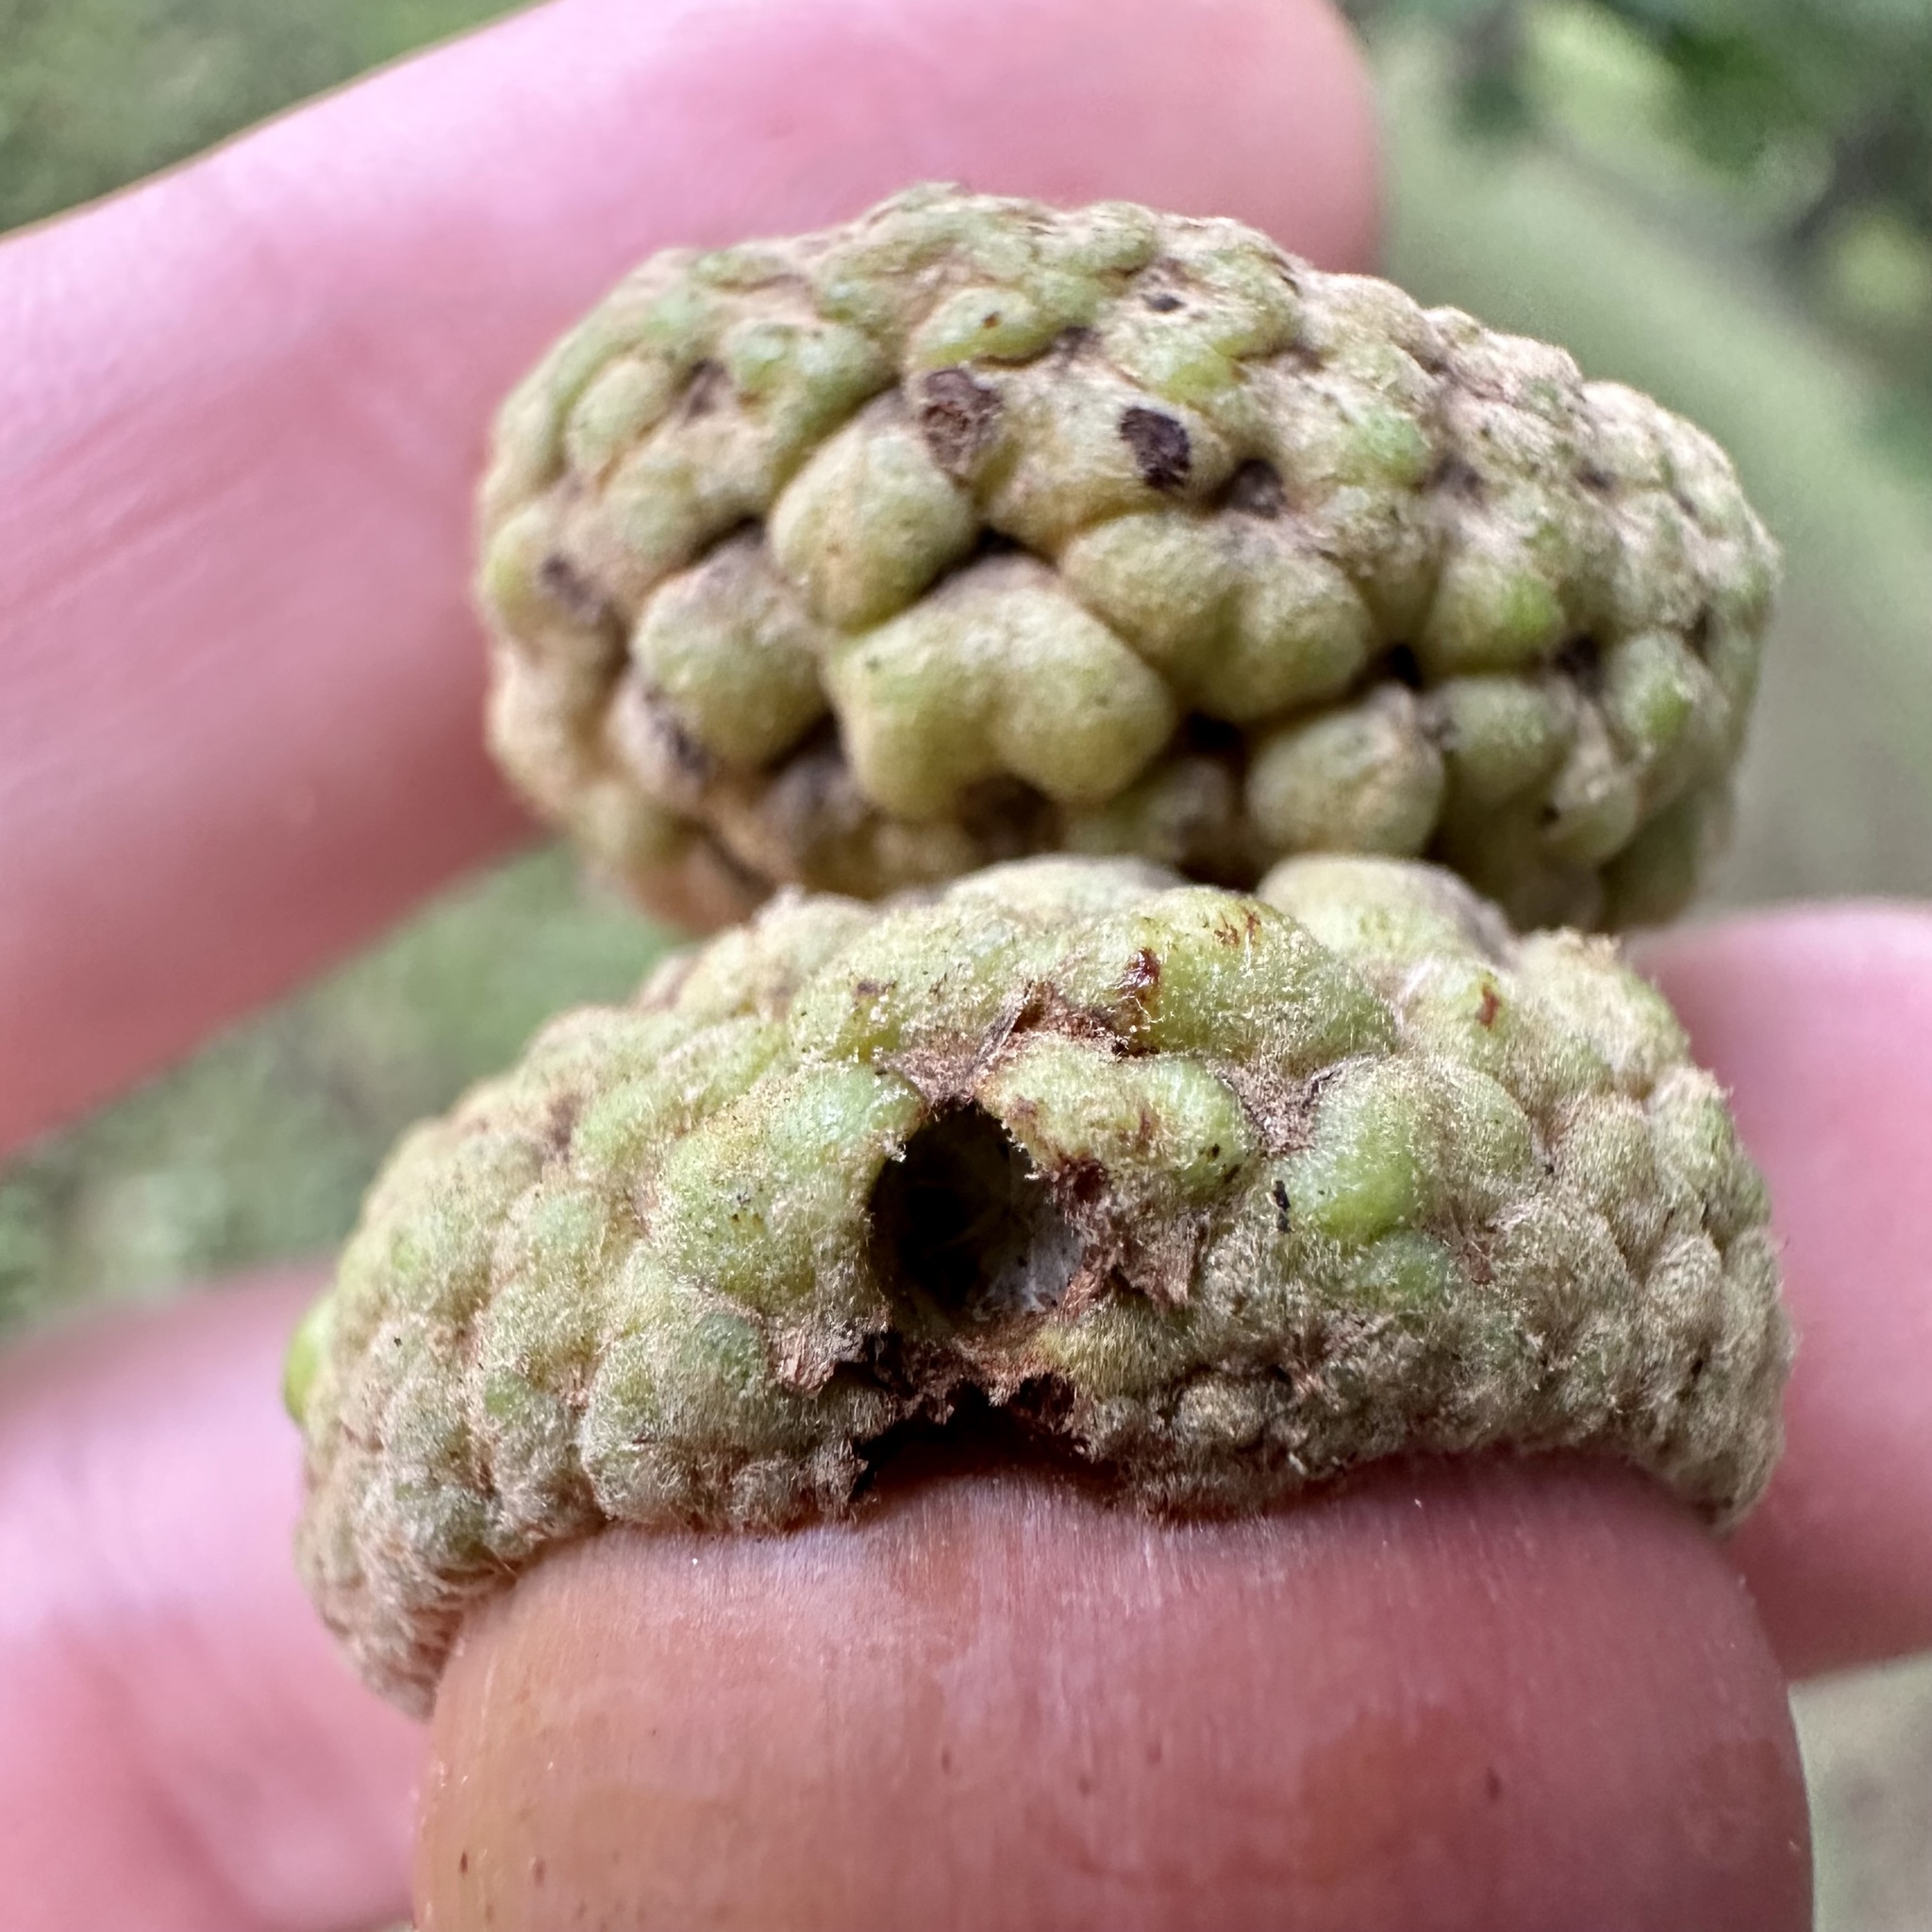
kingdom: Animalia
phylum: Arthropoda
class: Insecta
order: Hymenoptera
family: Cynipidae
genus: Callirhytis
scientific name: Callirhytis glandium
